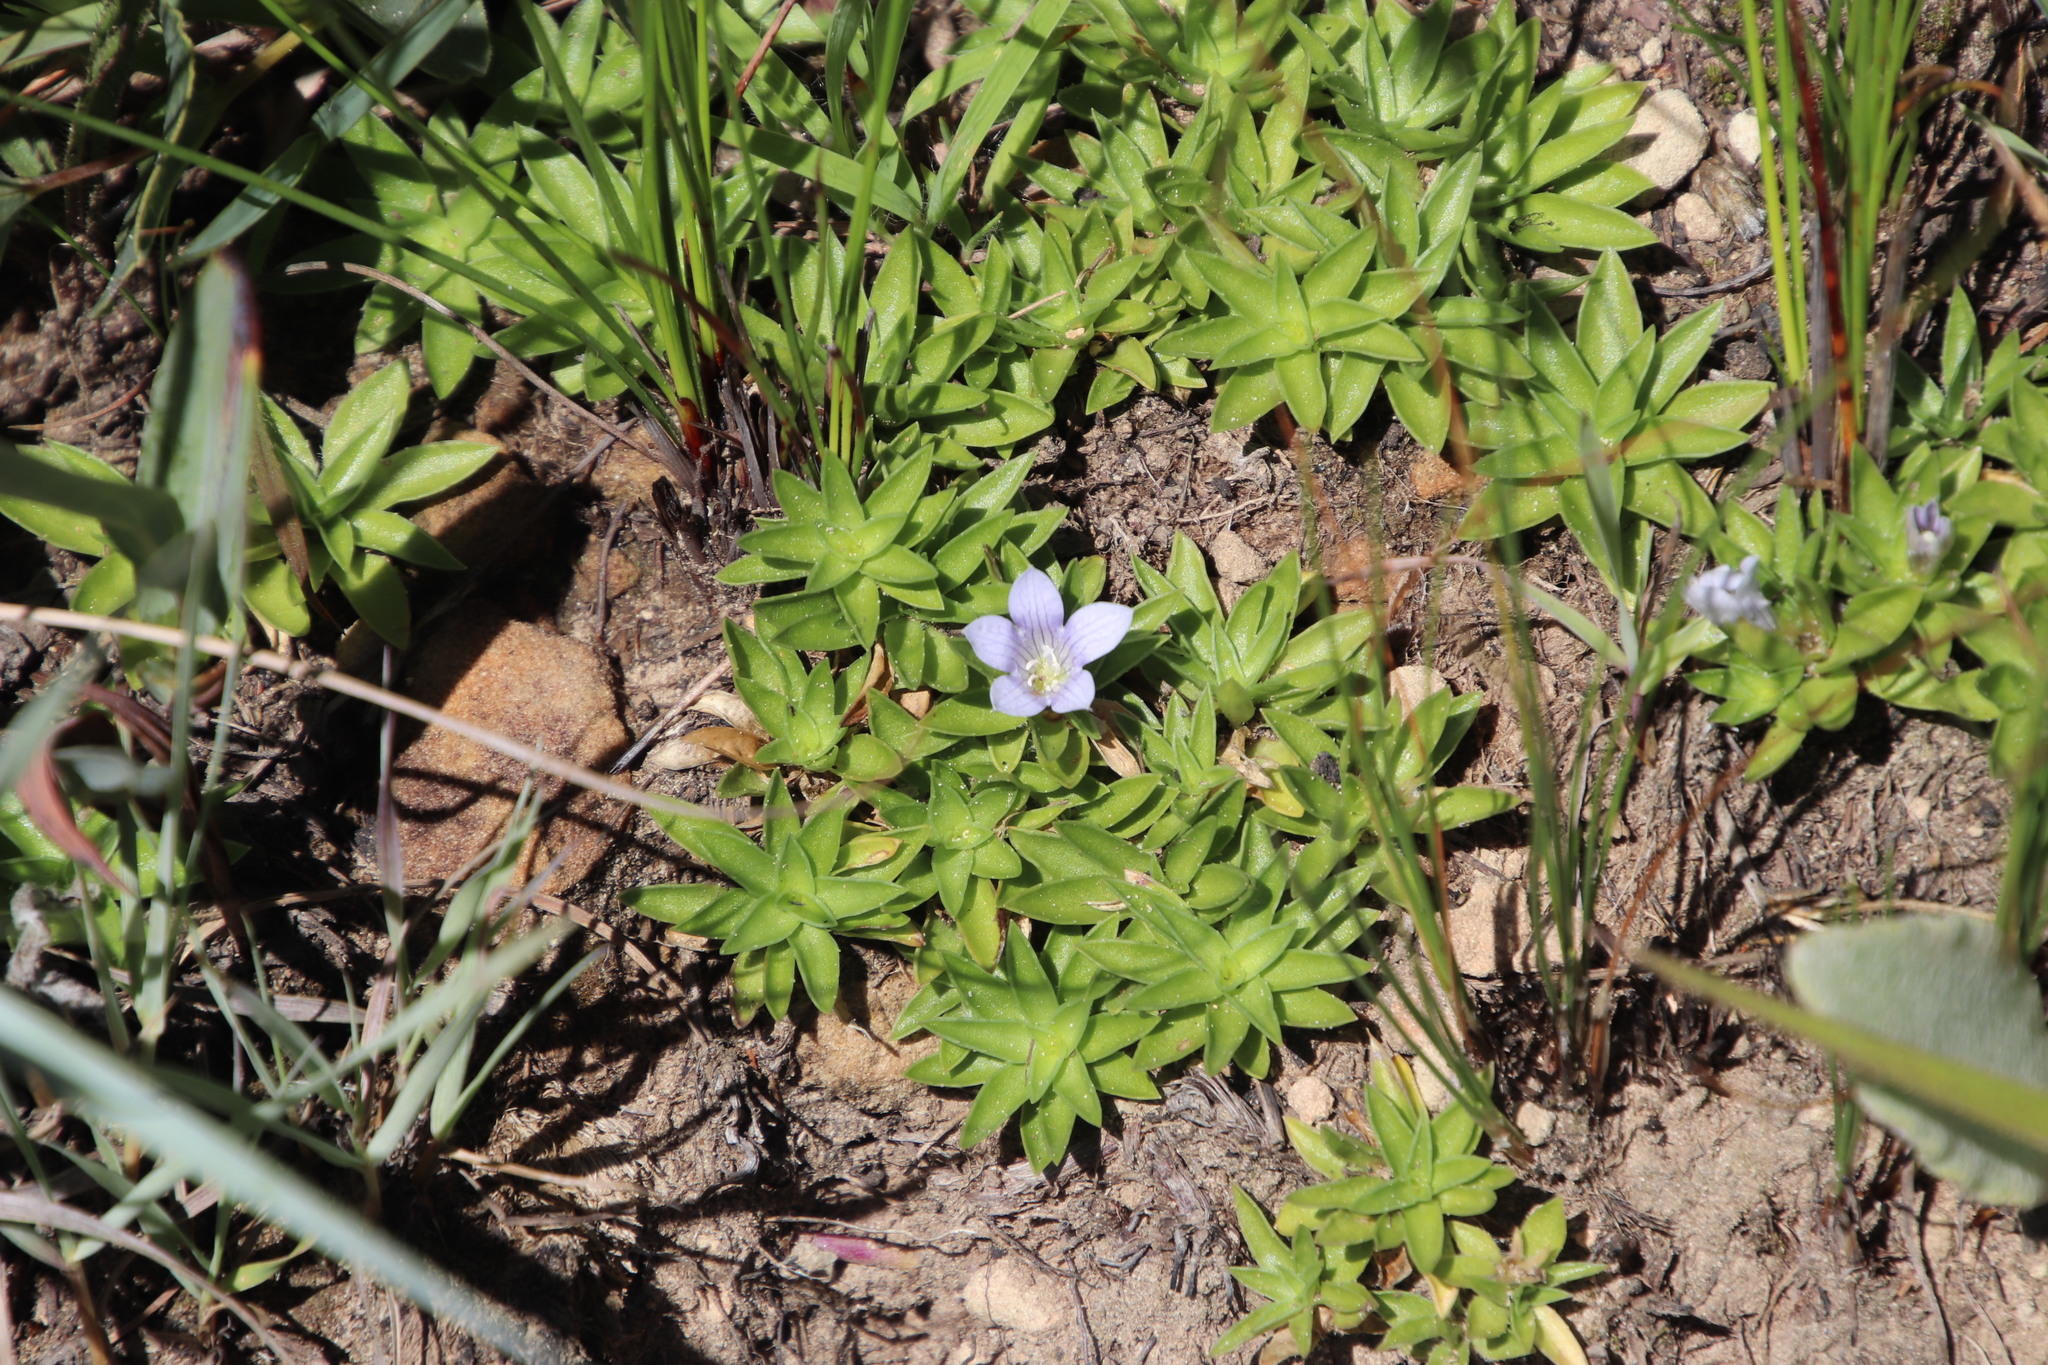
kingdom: Plantae
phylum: Tracheophyta
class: Magnoliopsida
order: Asterales
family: Campanulaceae
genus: Craterocapsa
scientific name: Craterocapsa tarsodes
